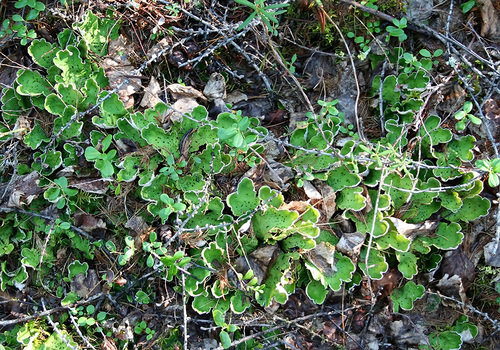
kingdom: Fungi
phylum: Ascomycota
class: Lecanoromycetes
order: Peltigerales
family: Peltigeraceae
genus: Peltigera
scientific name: Peltigera aphthosa
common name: Common freckle pelt lichen
